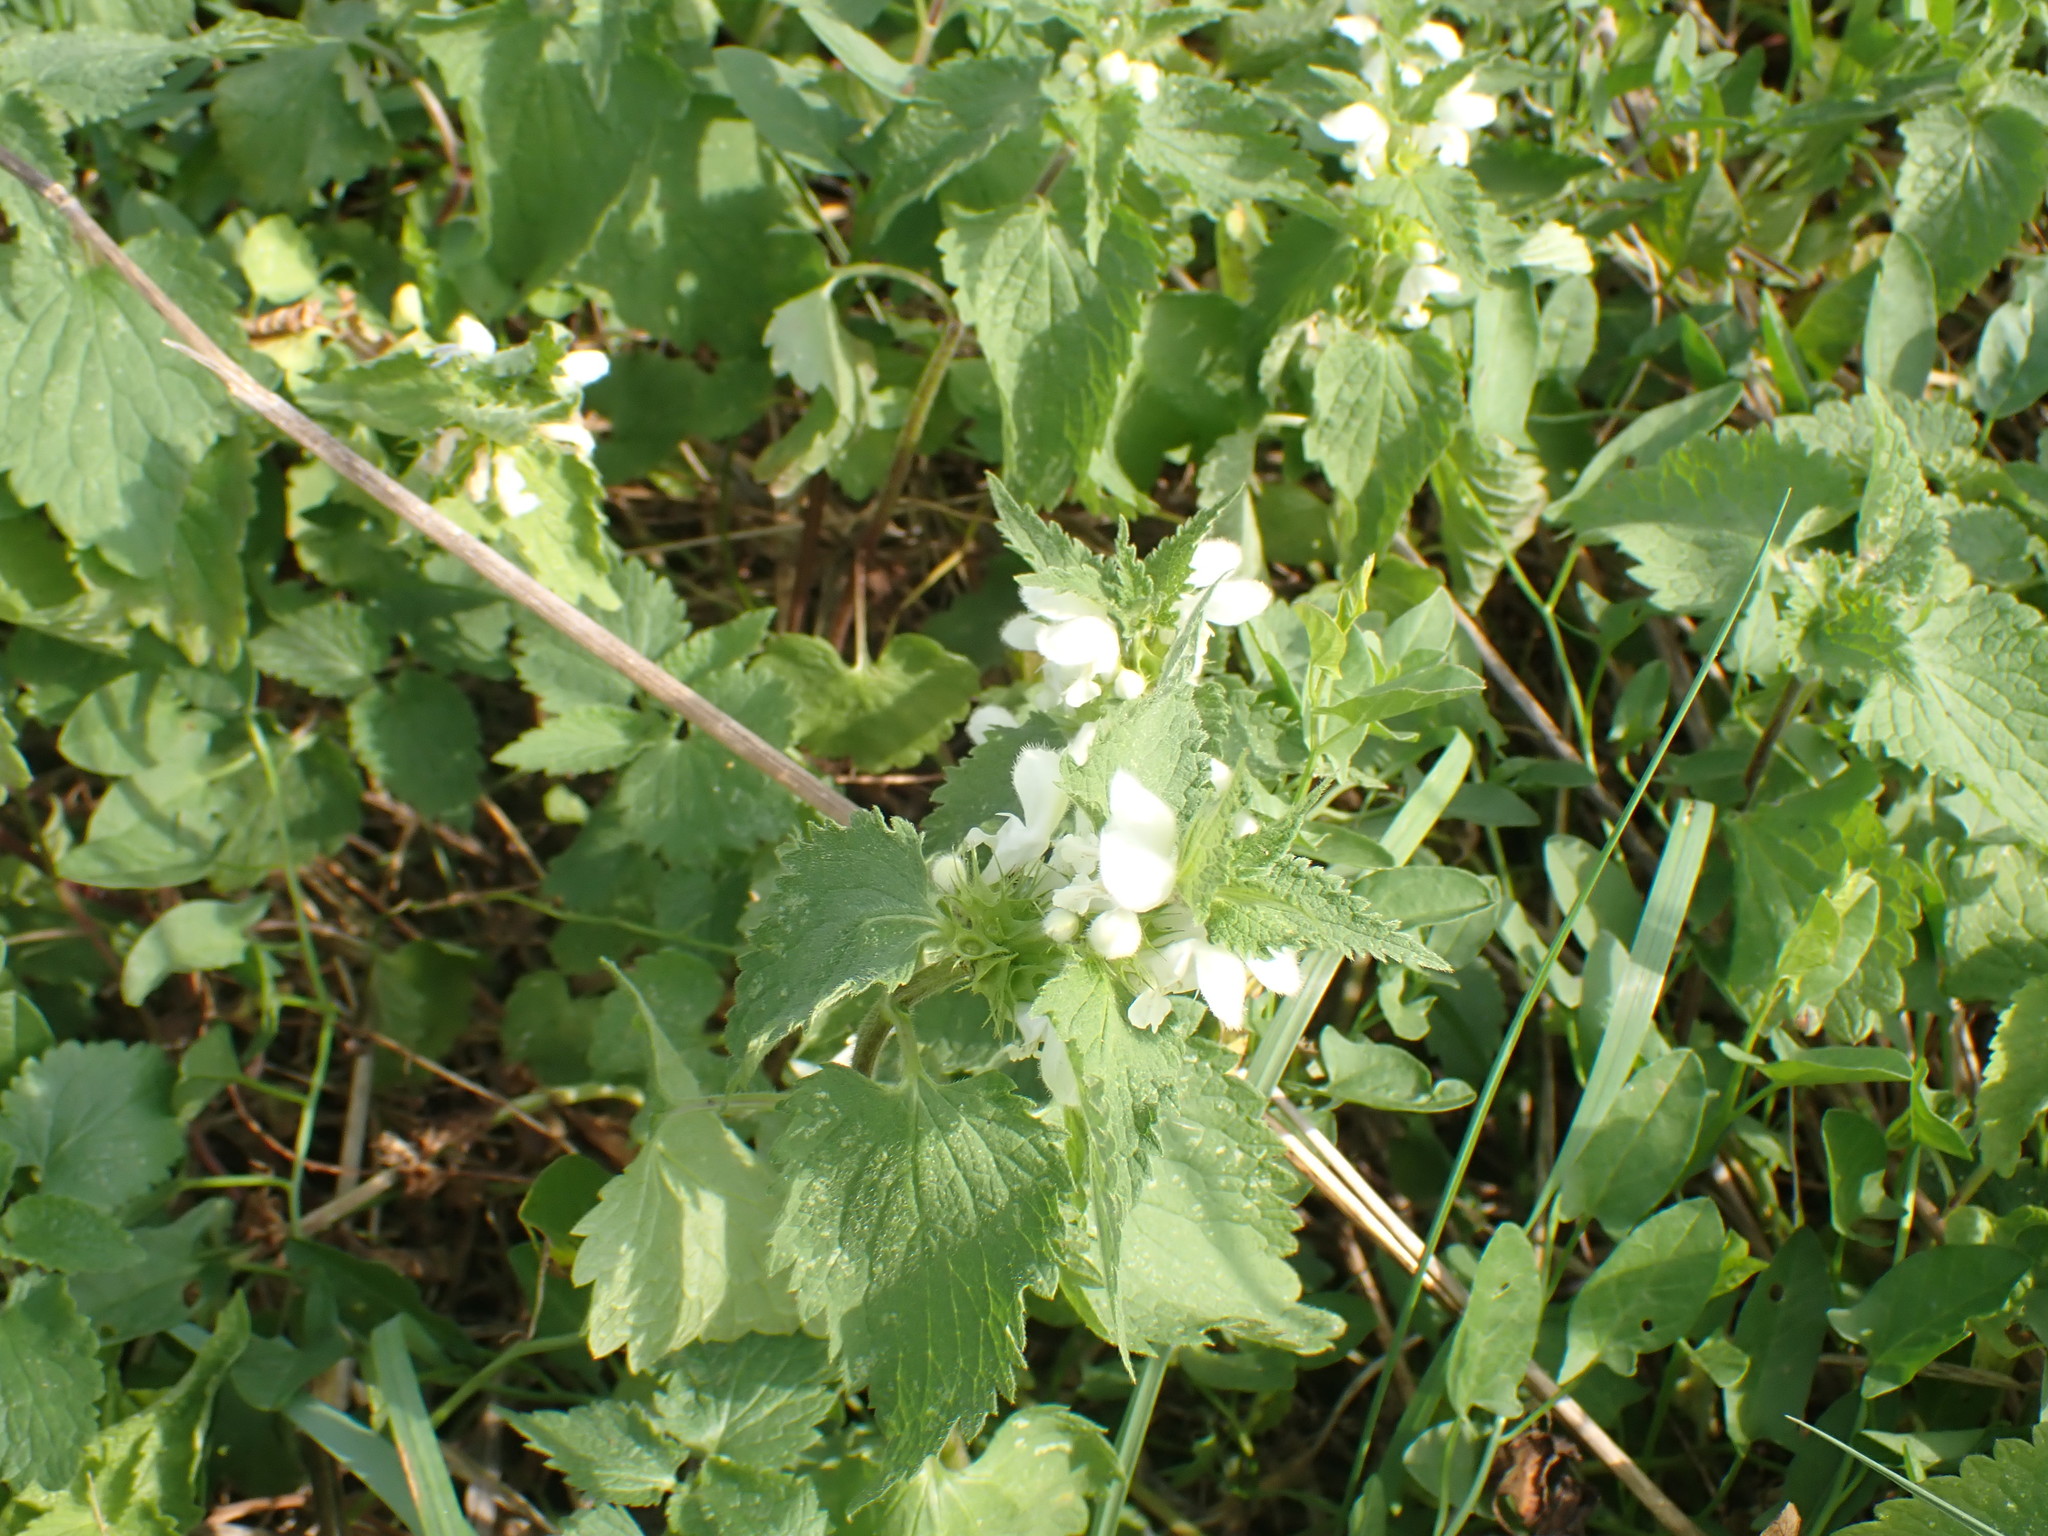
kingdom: Plantae
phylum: Tracheophyta
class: Magnoliopsida
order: Lamiales
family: Lamiaceae
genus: Lamium
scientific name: Lamium album
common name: White dead-nettle
